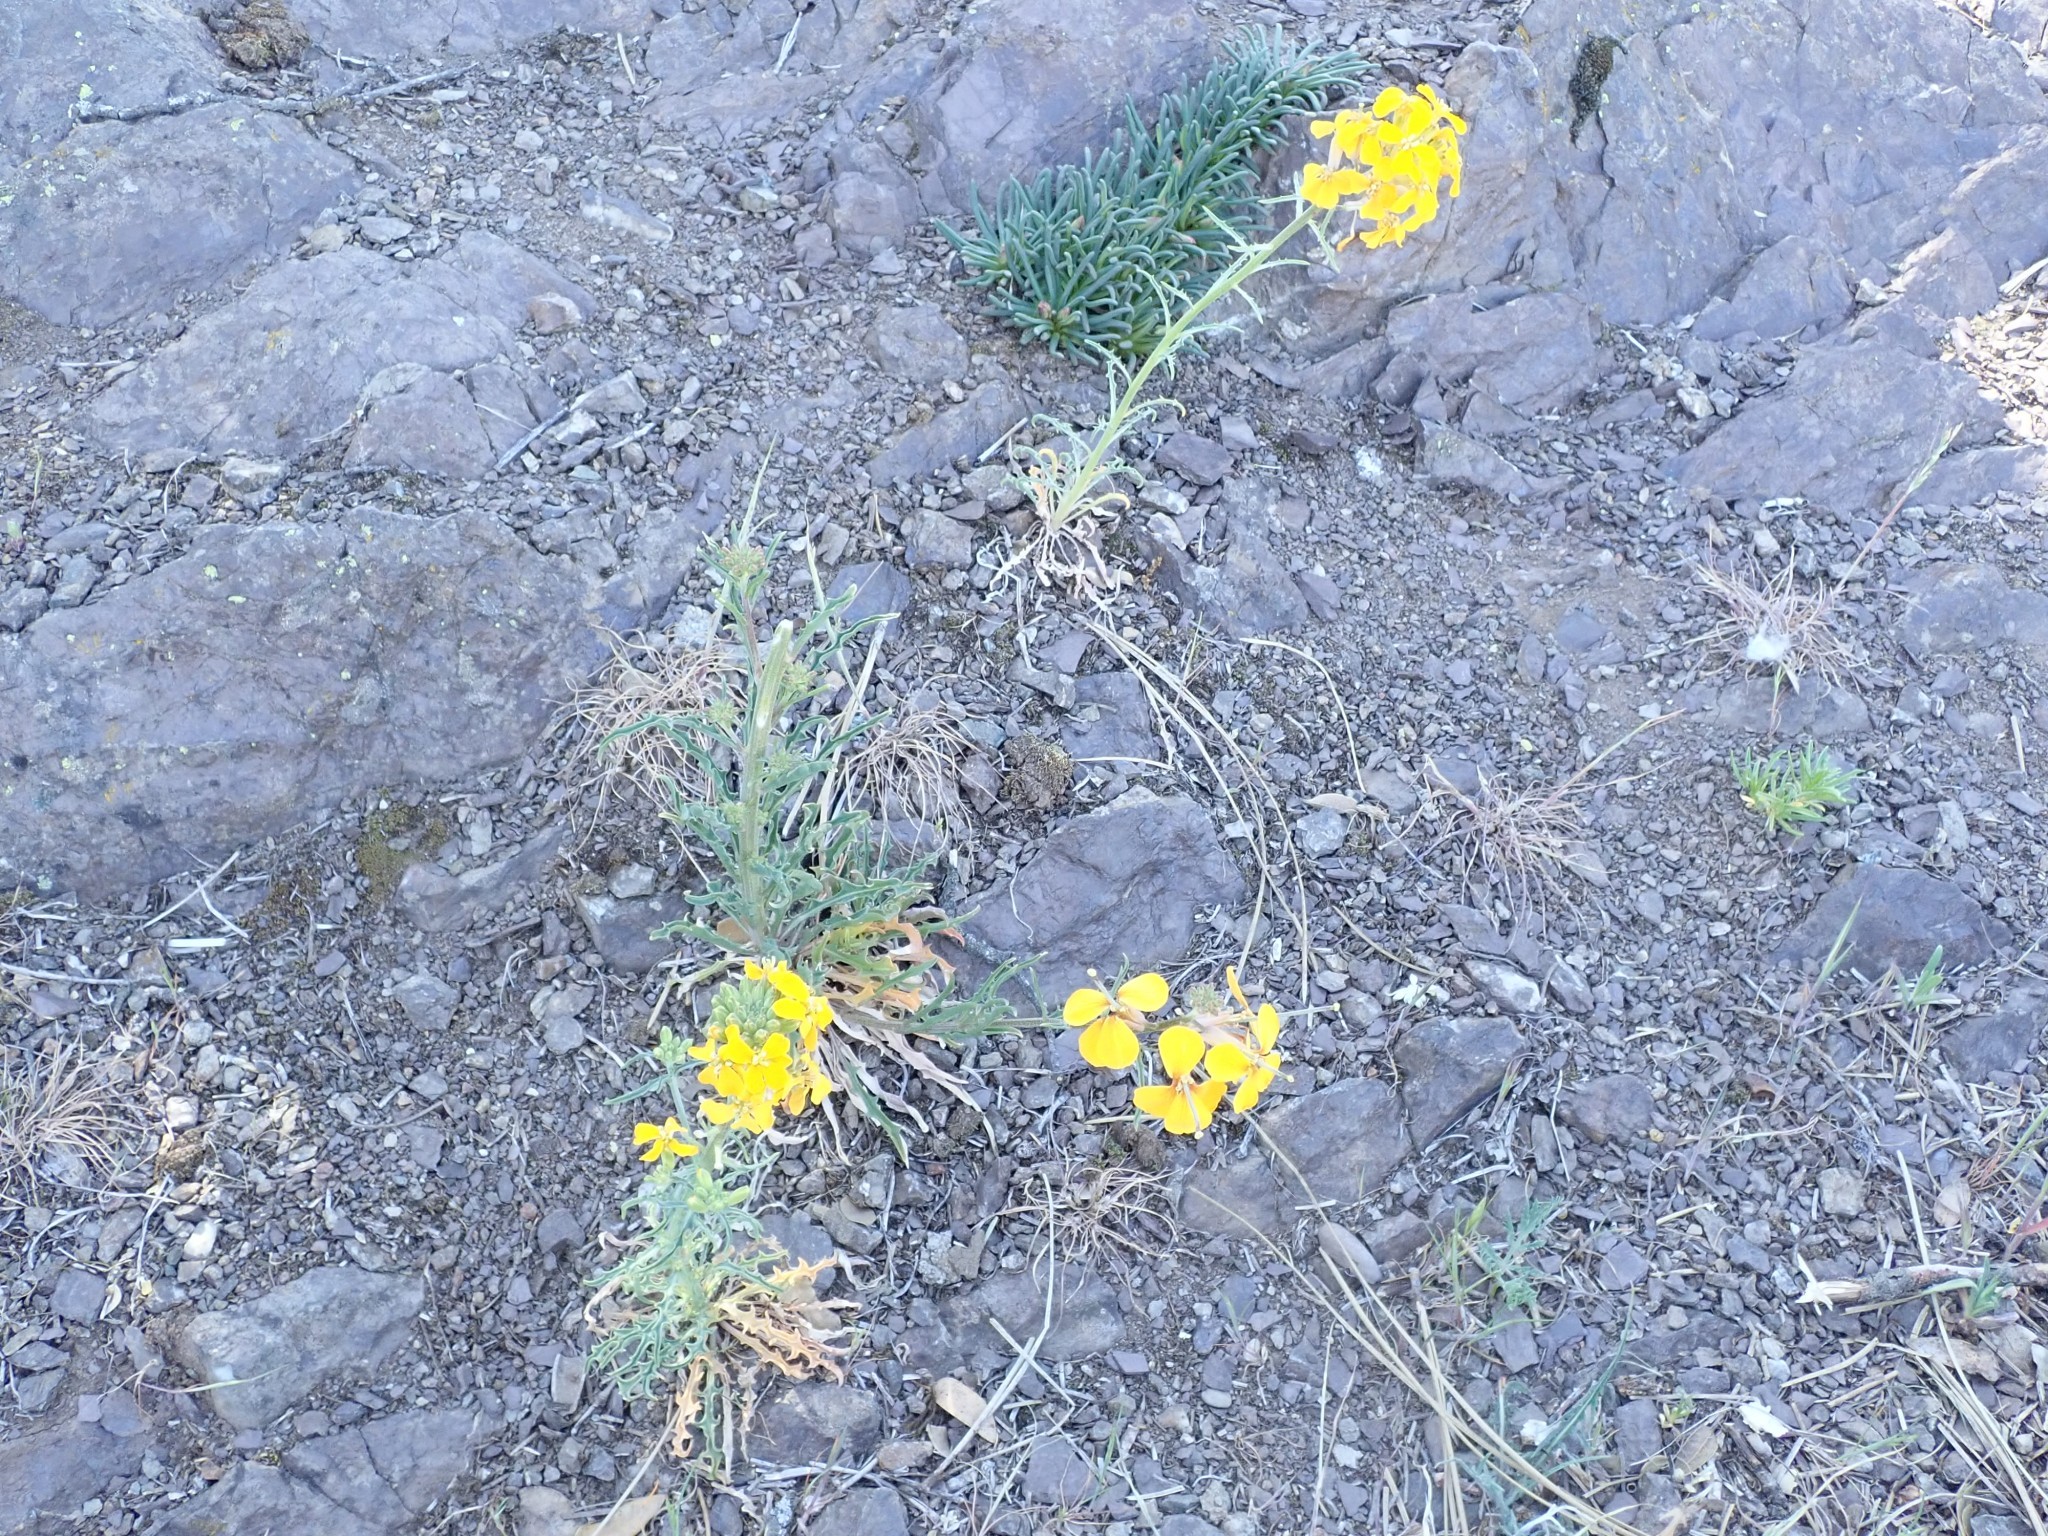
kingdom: Plantae
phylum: Tracheophyta
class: Magnoliopsida
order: Brassicales
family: Brassicaceae
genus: Erysimum
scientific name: Erysimum capitatum
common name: Western wallflower
